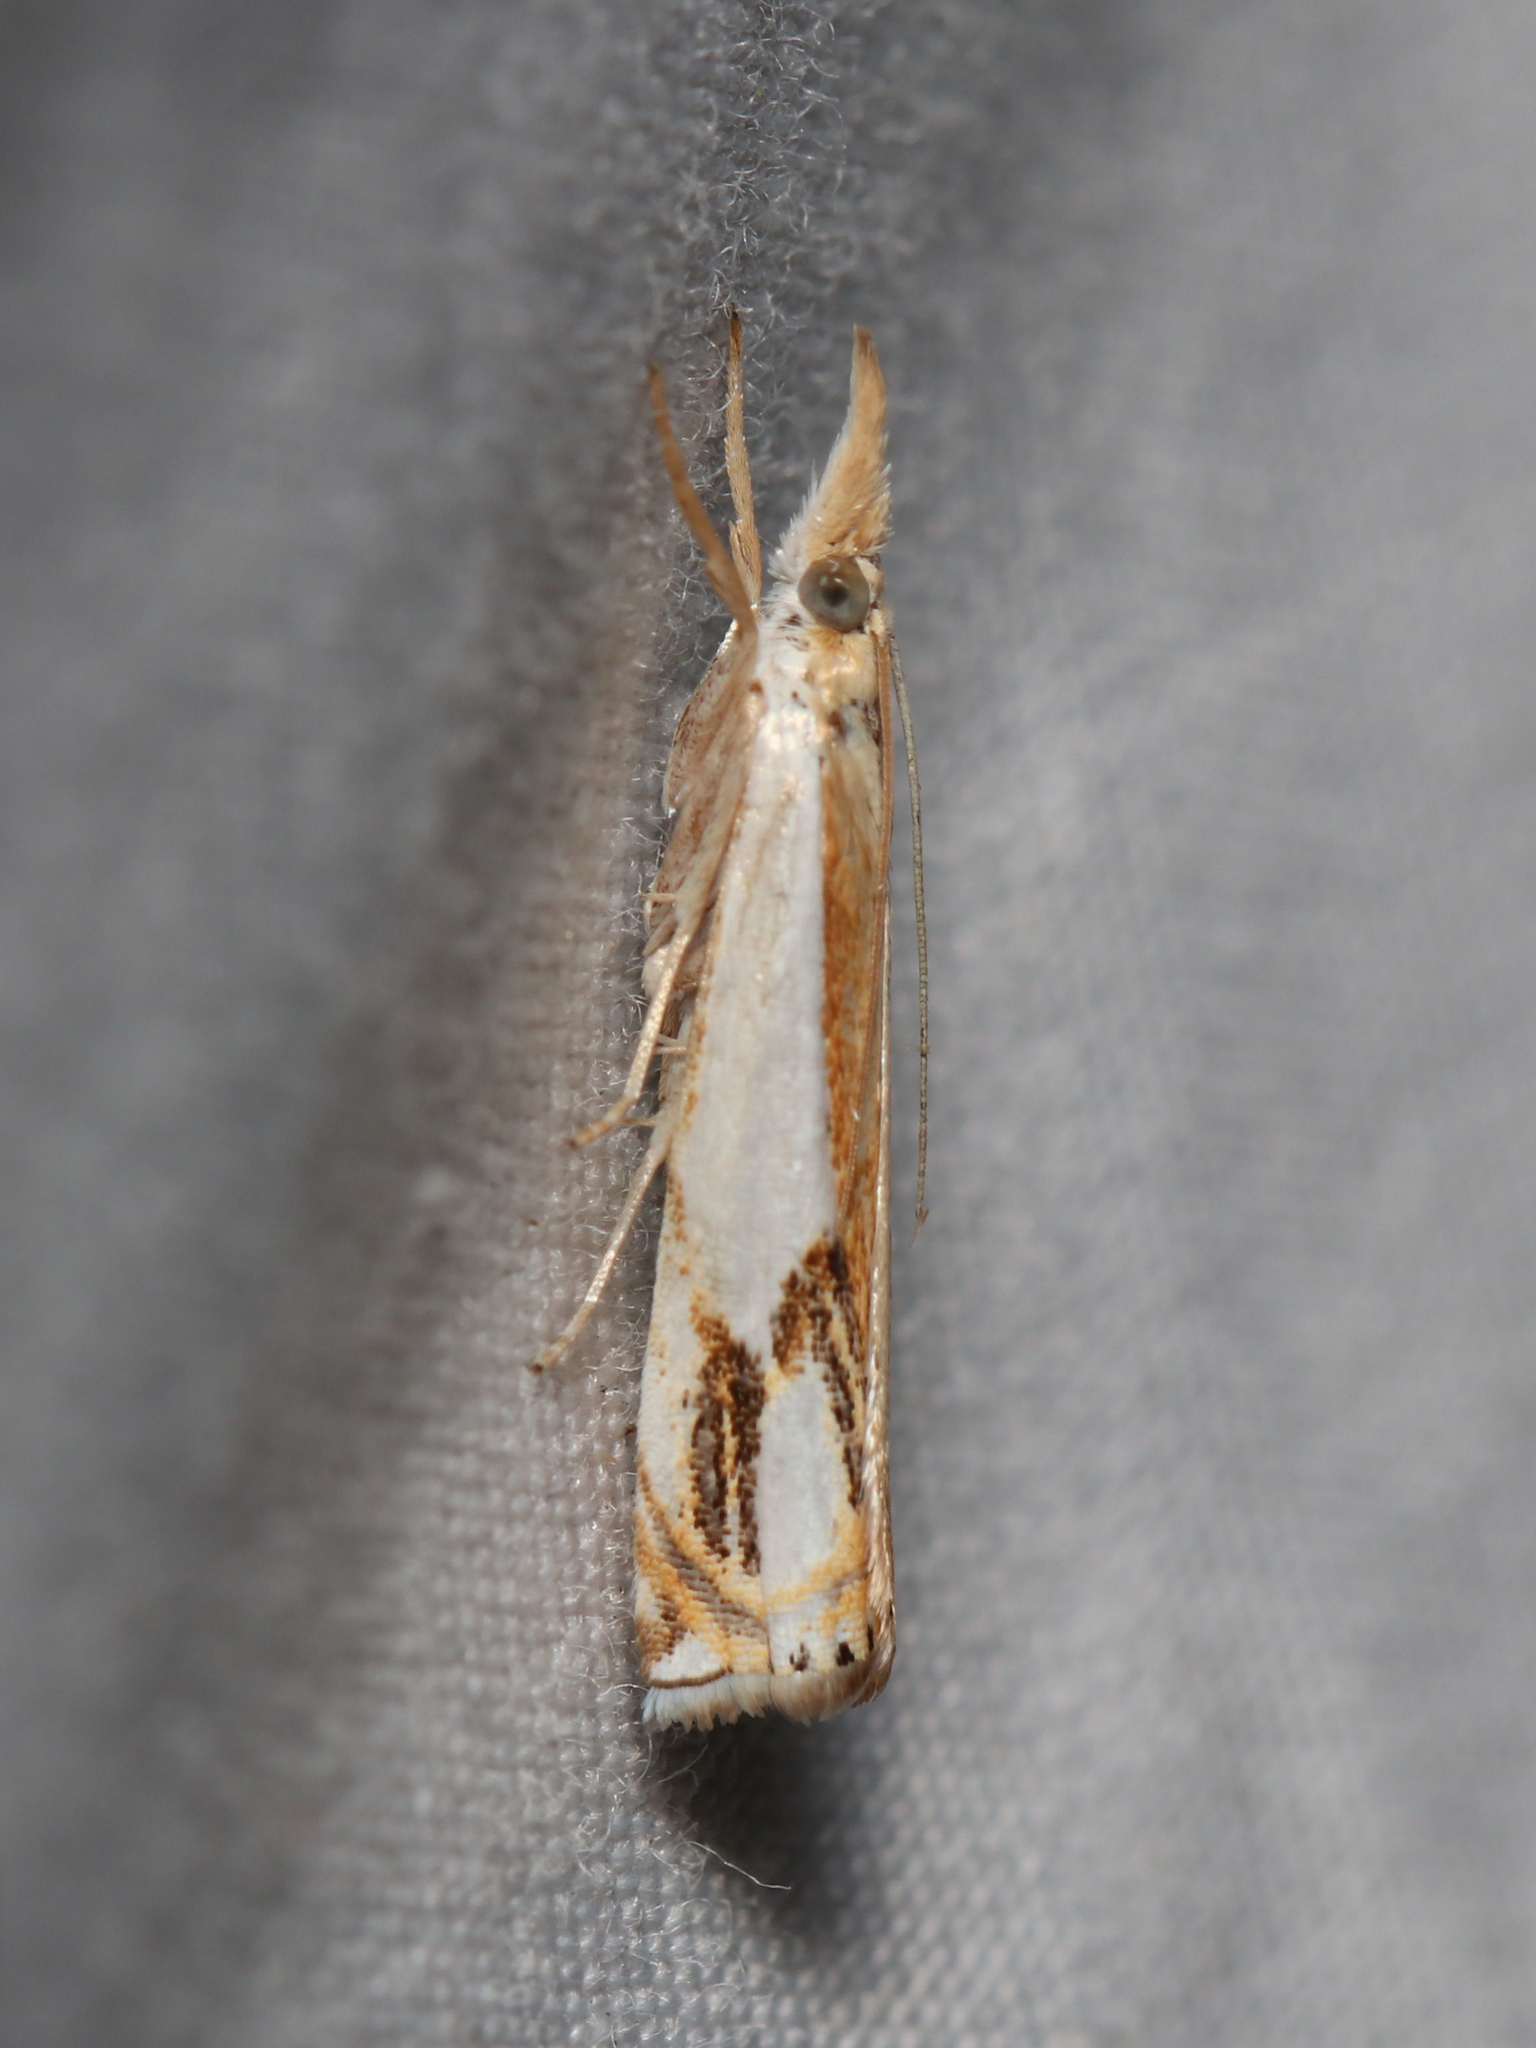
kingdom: Animalia
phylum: Arthropoda
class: Insecta
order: Lepidoptera
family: Crambidae
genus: Crambus
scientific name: Crambus agitatellus
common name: Double-banded grass-veneer
